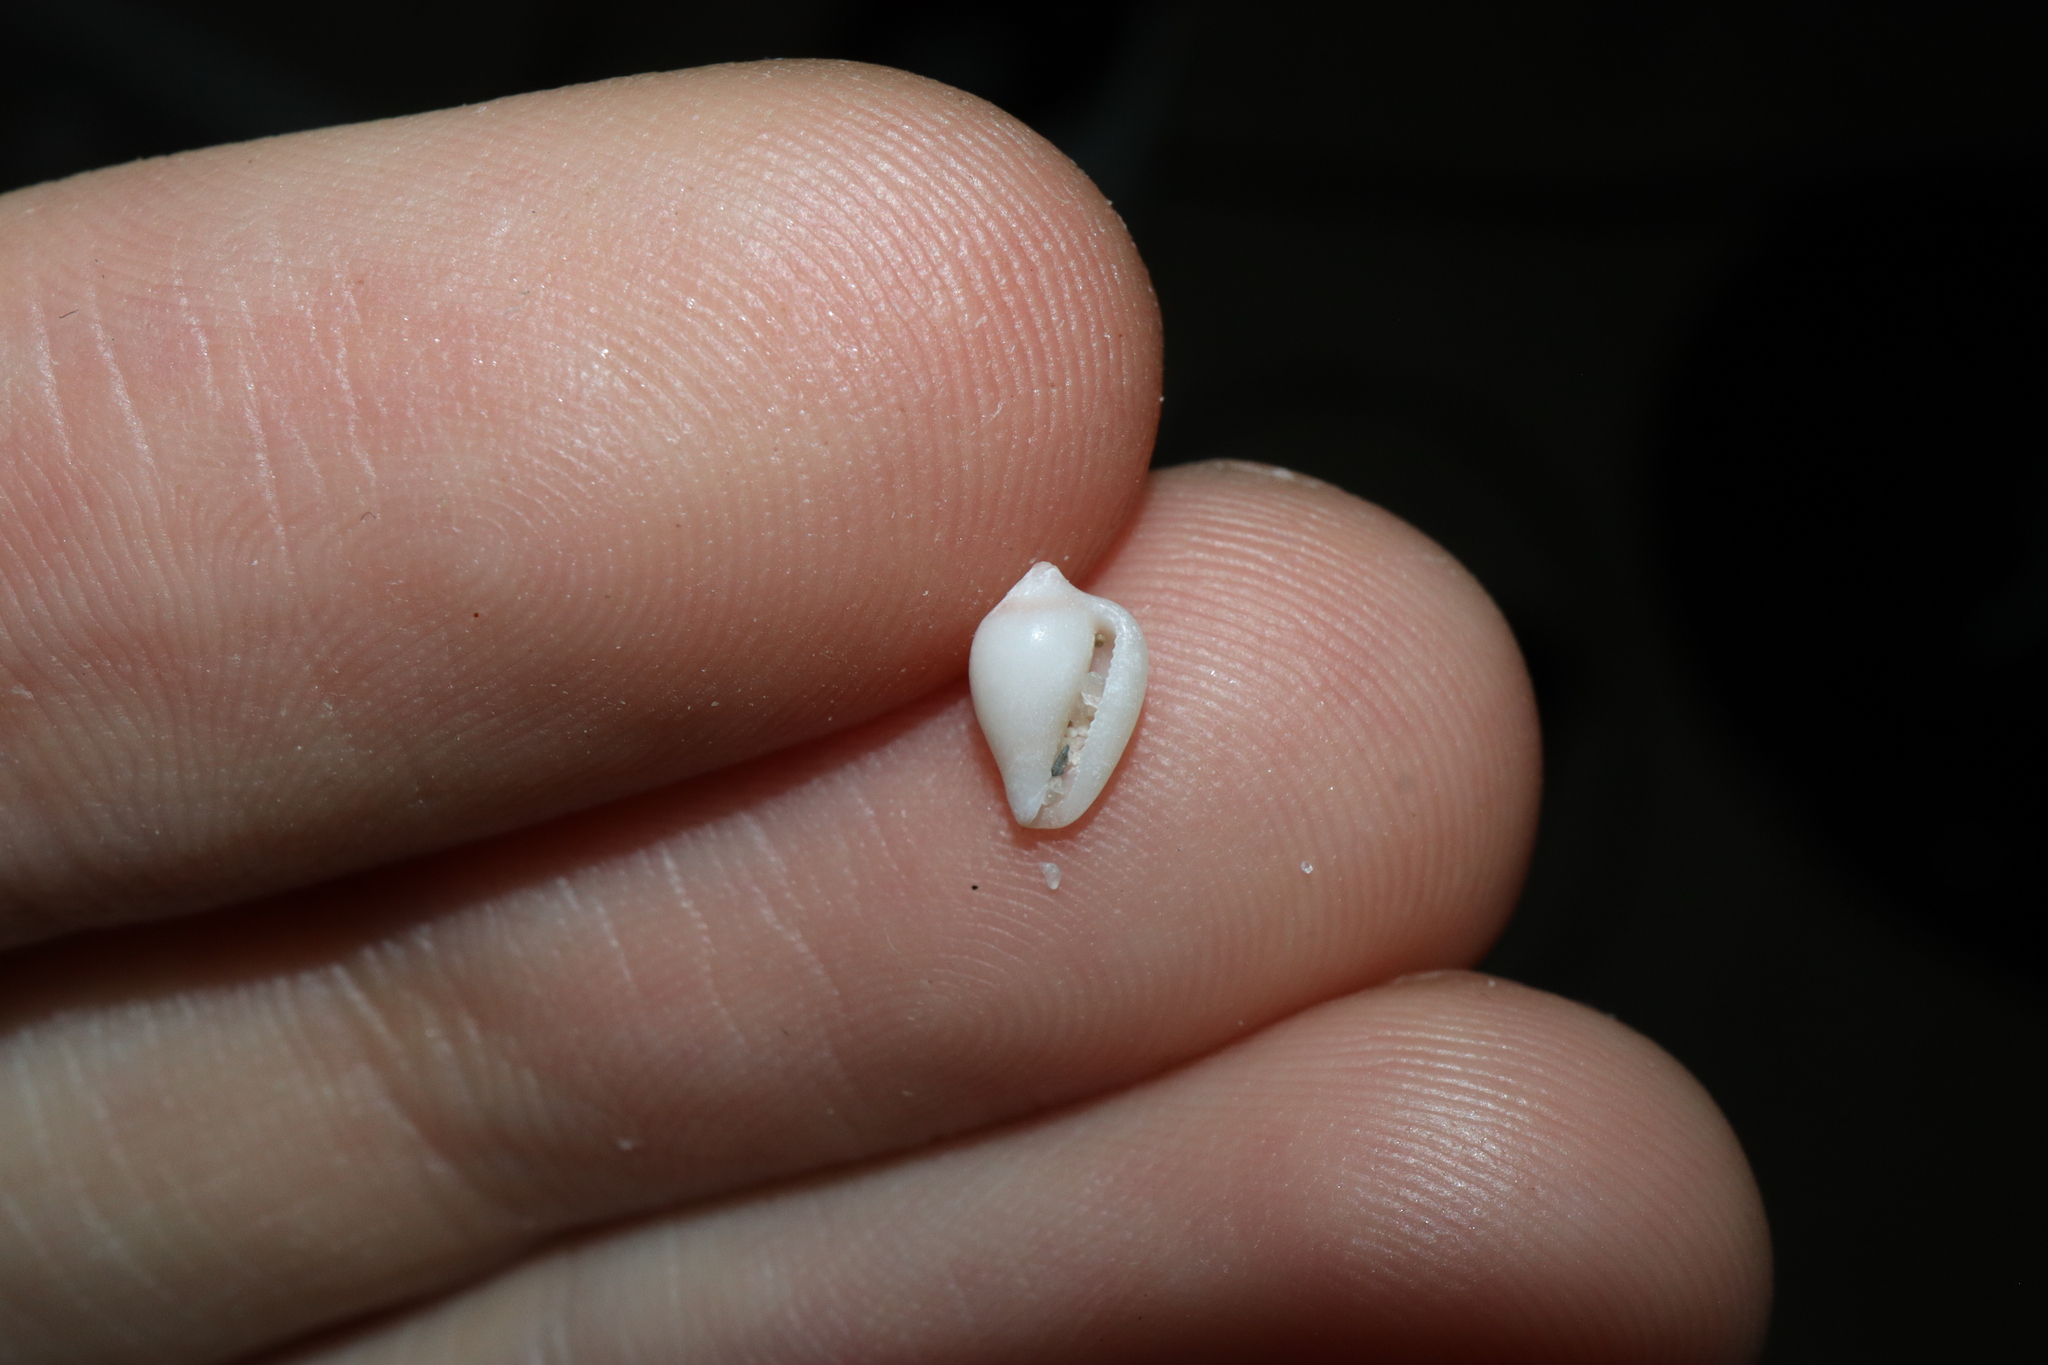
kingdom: Animalia
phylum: Mollusca
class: Gastropoda
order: Littorinimorpha
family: Eratoidae
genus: Lachryma
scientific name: Lachryma lachryma
